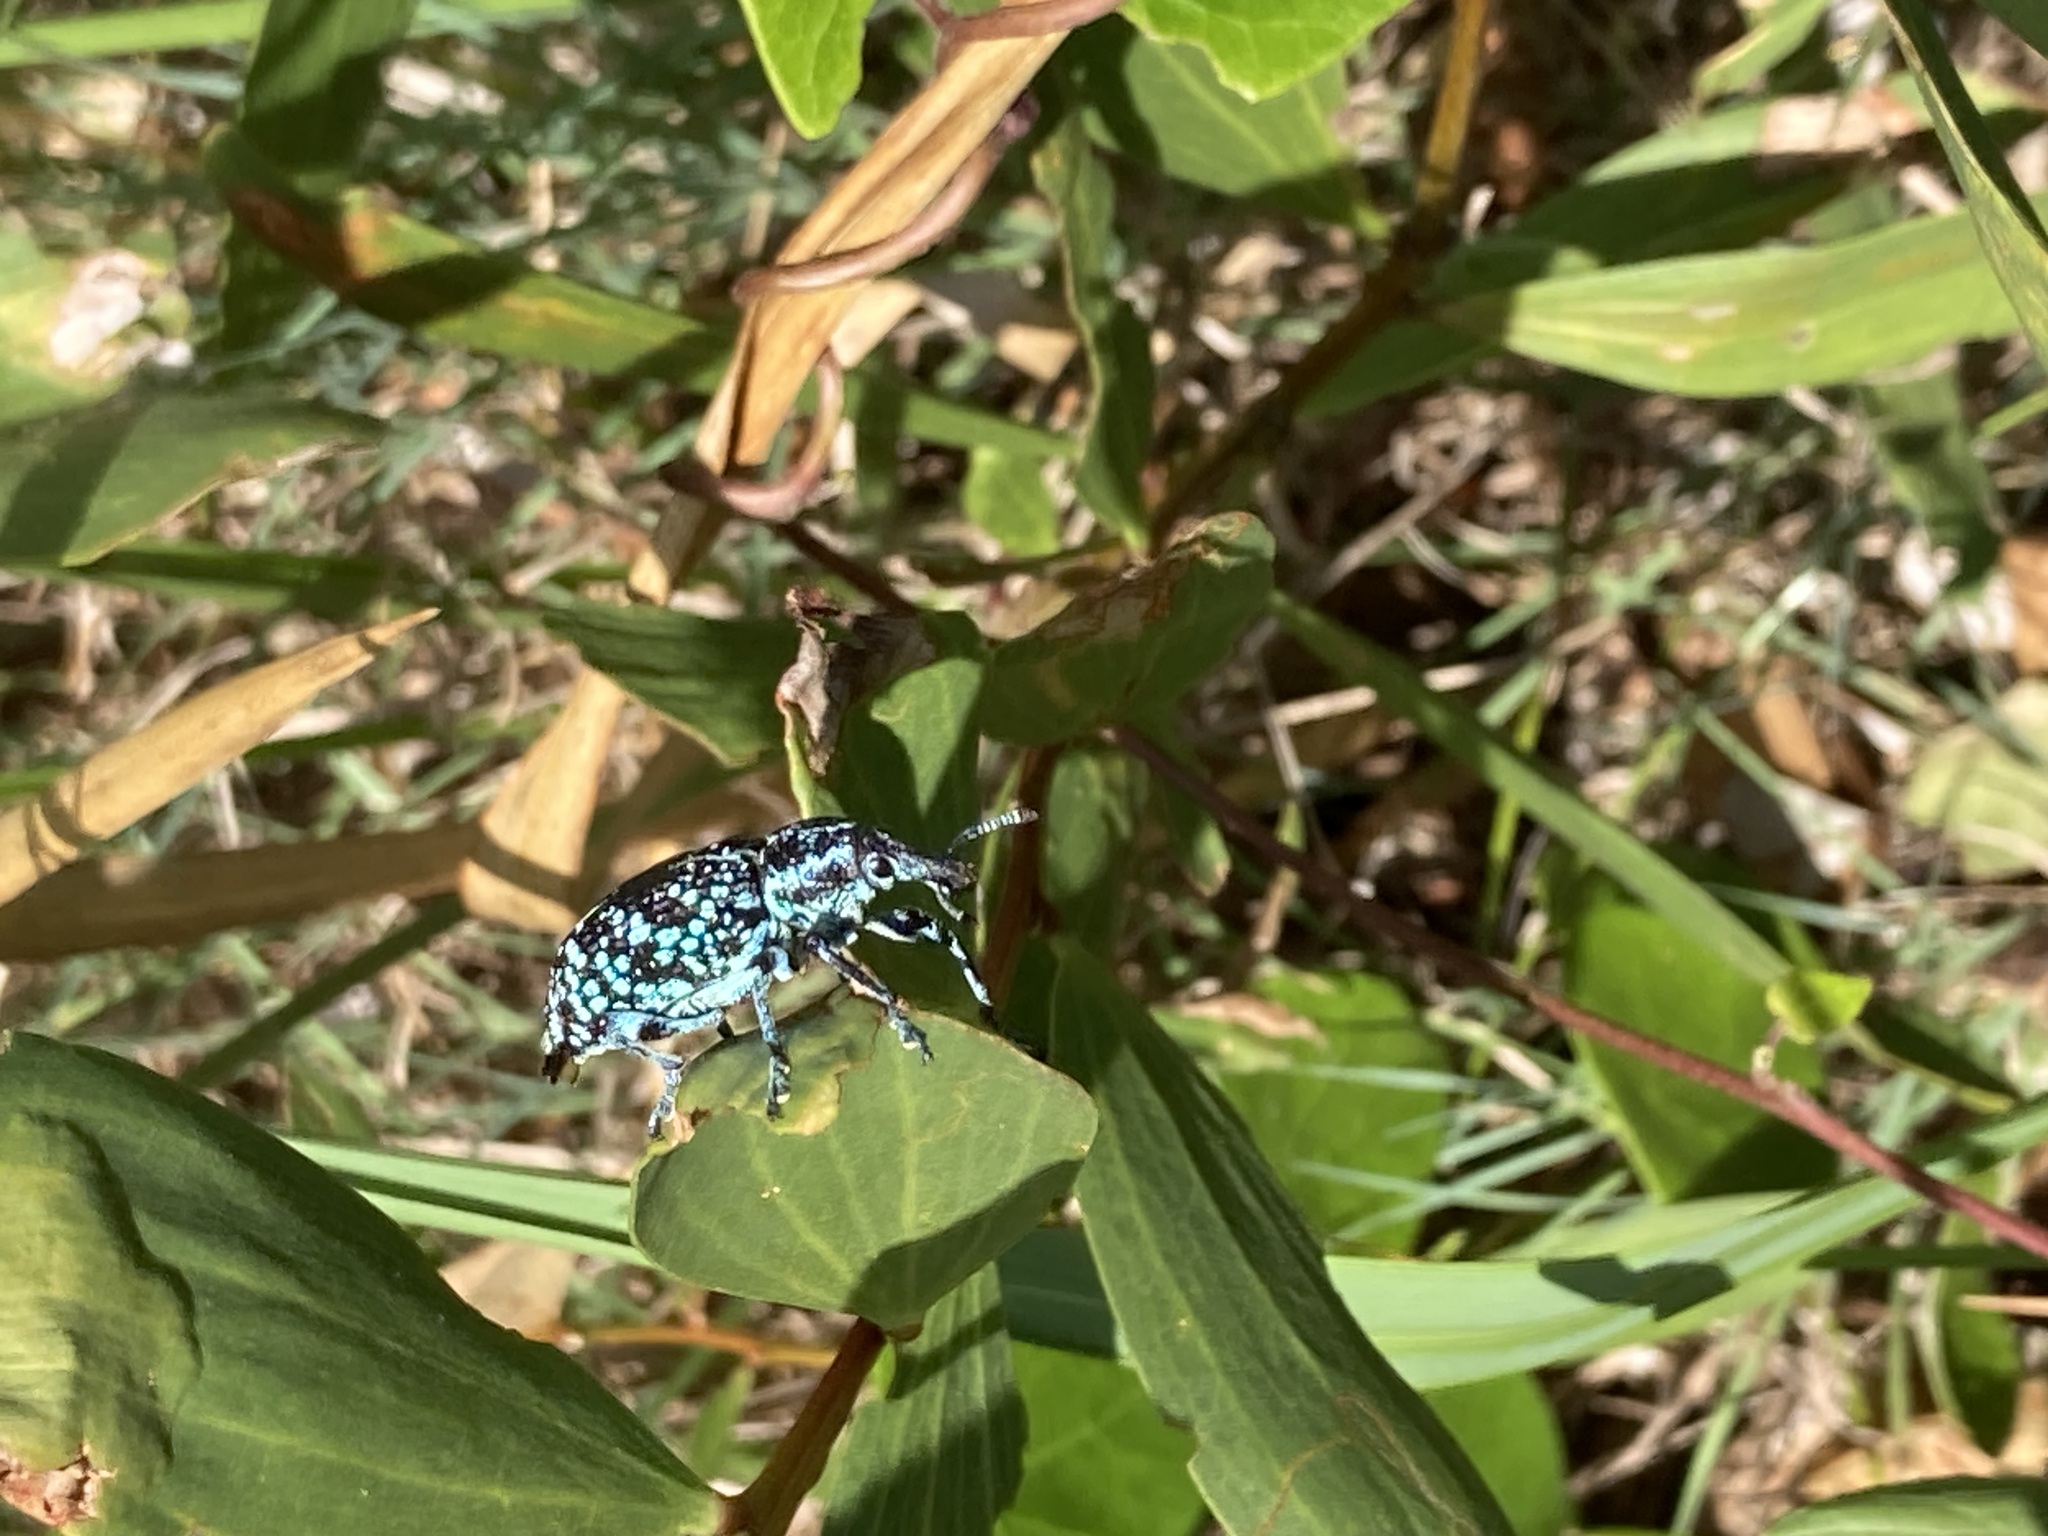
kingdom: Animalia
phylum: Arthropoda
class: Insecta
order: Coleoptera
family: Curculionidae
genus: Chrysolopus
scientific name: Chrysolopus spectabilis
